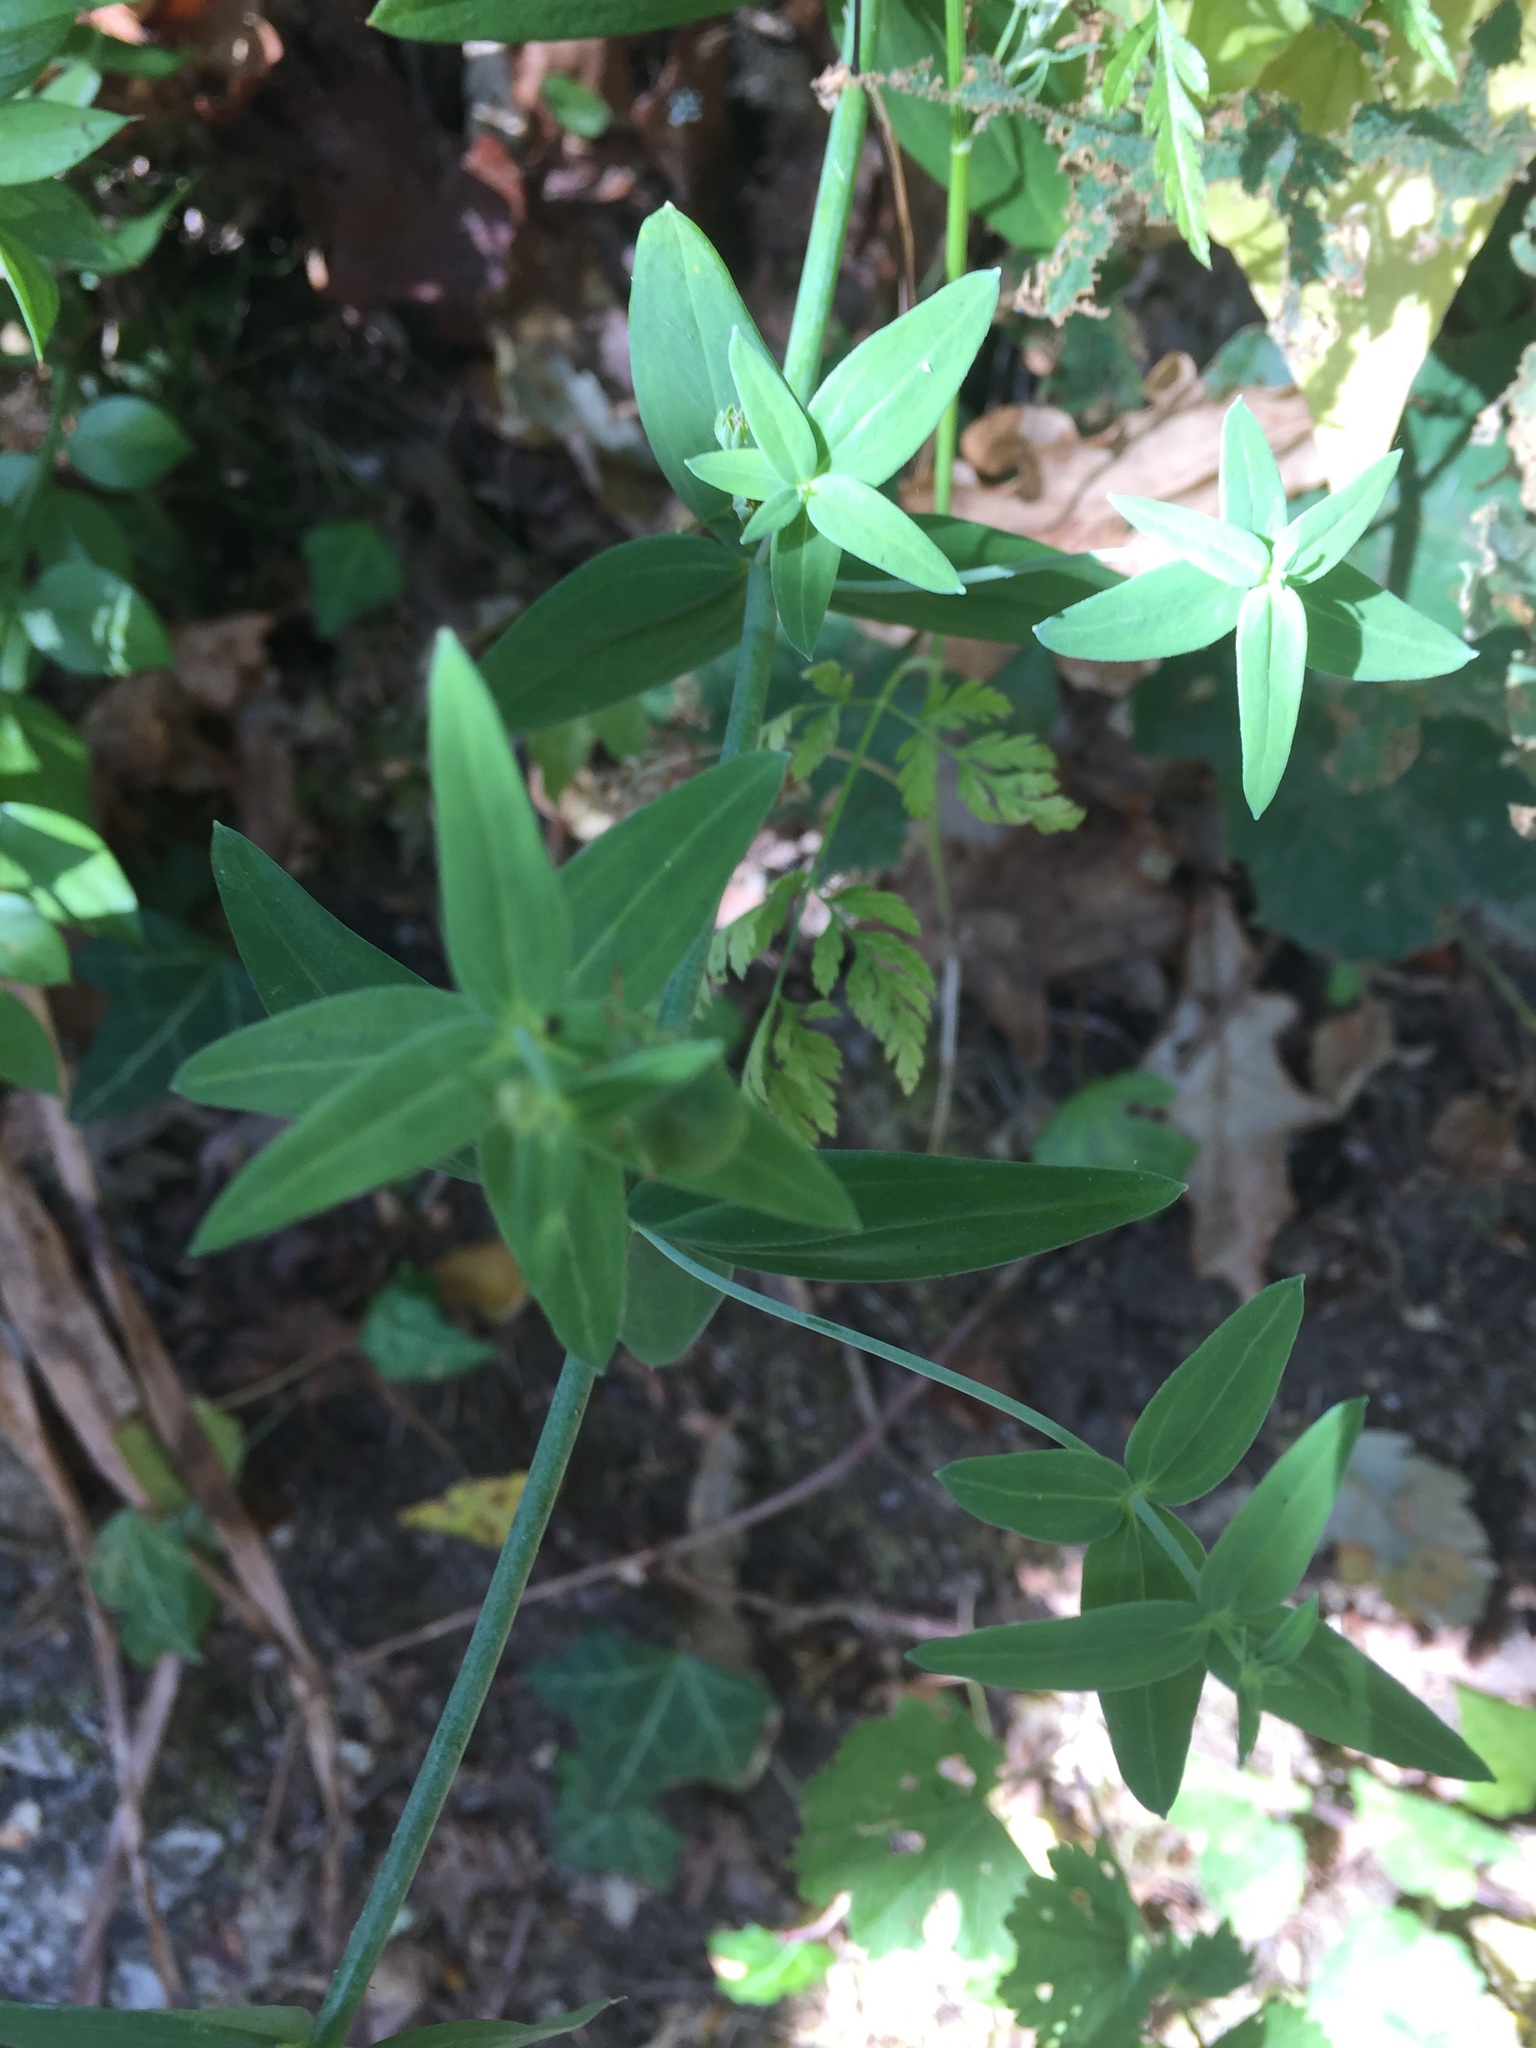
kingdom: Plantae
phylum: Tracheophyta
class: Magnoliopsida
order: Lamiales
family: Plantaginaceae
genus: Linaria
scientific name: Linaria triornithophora
